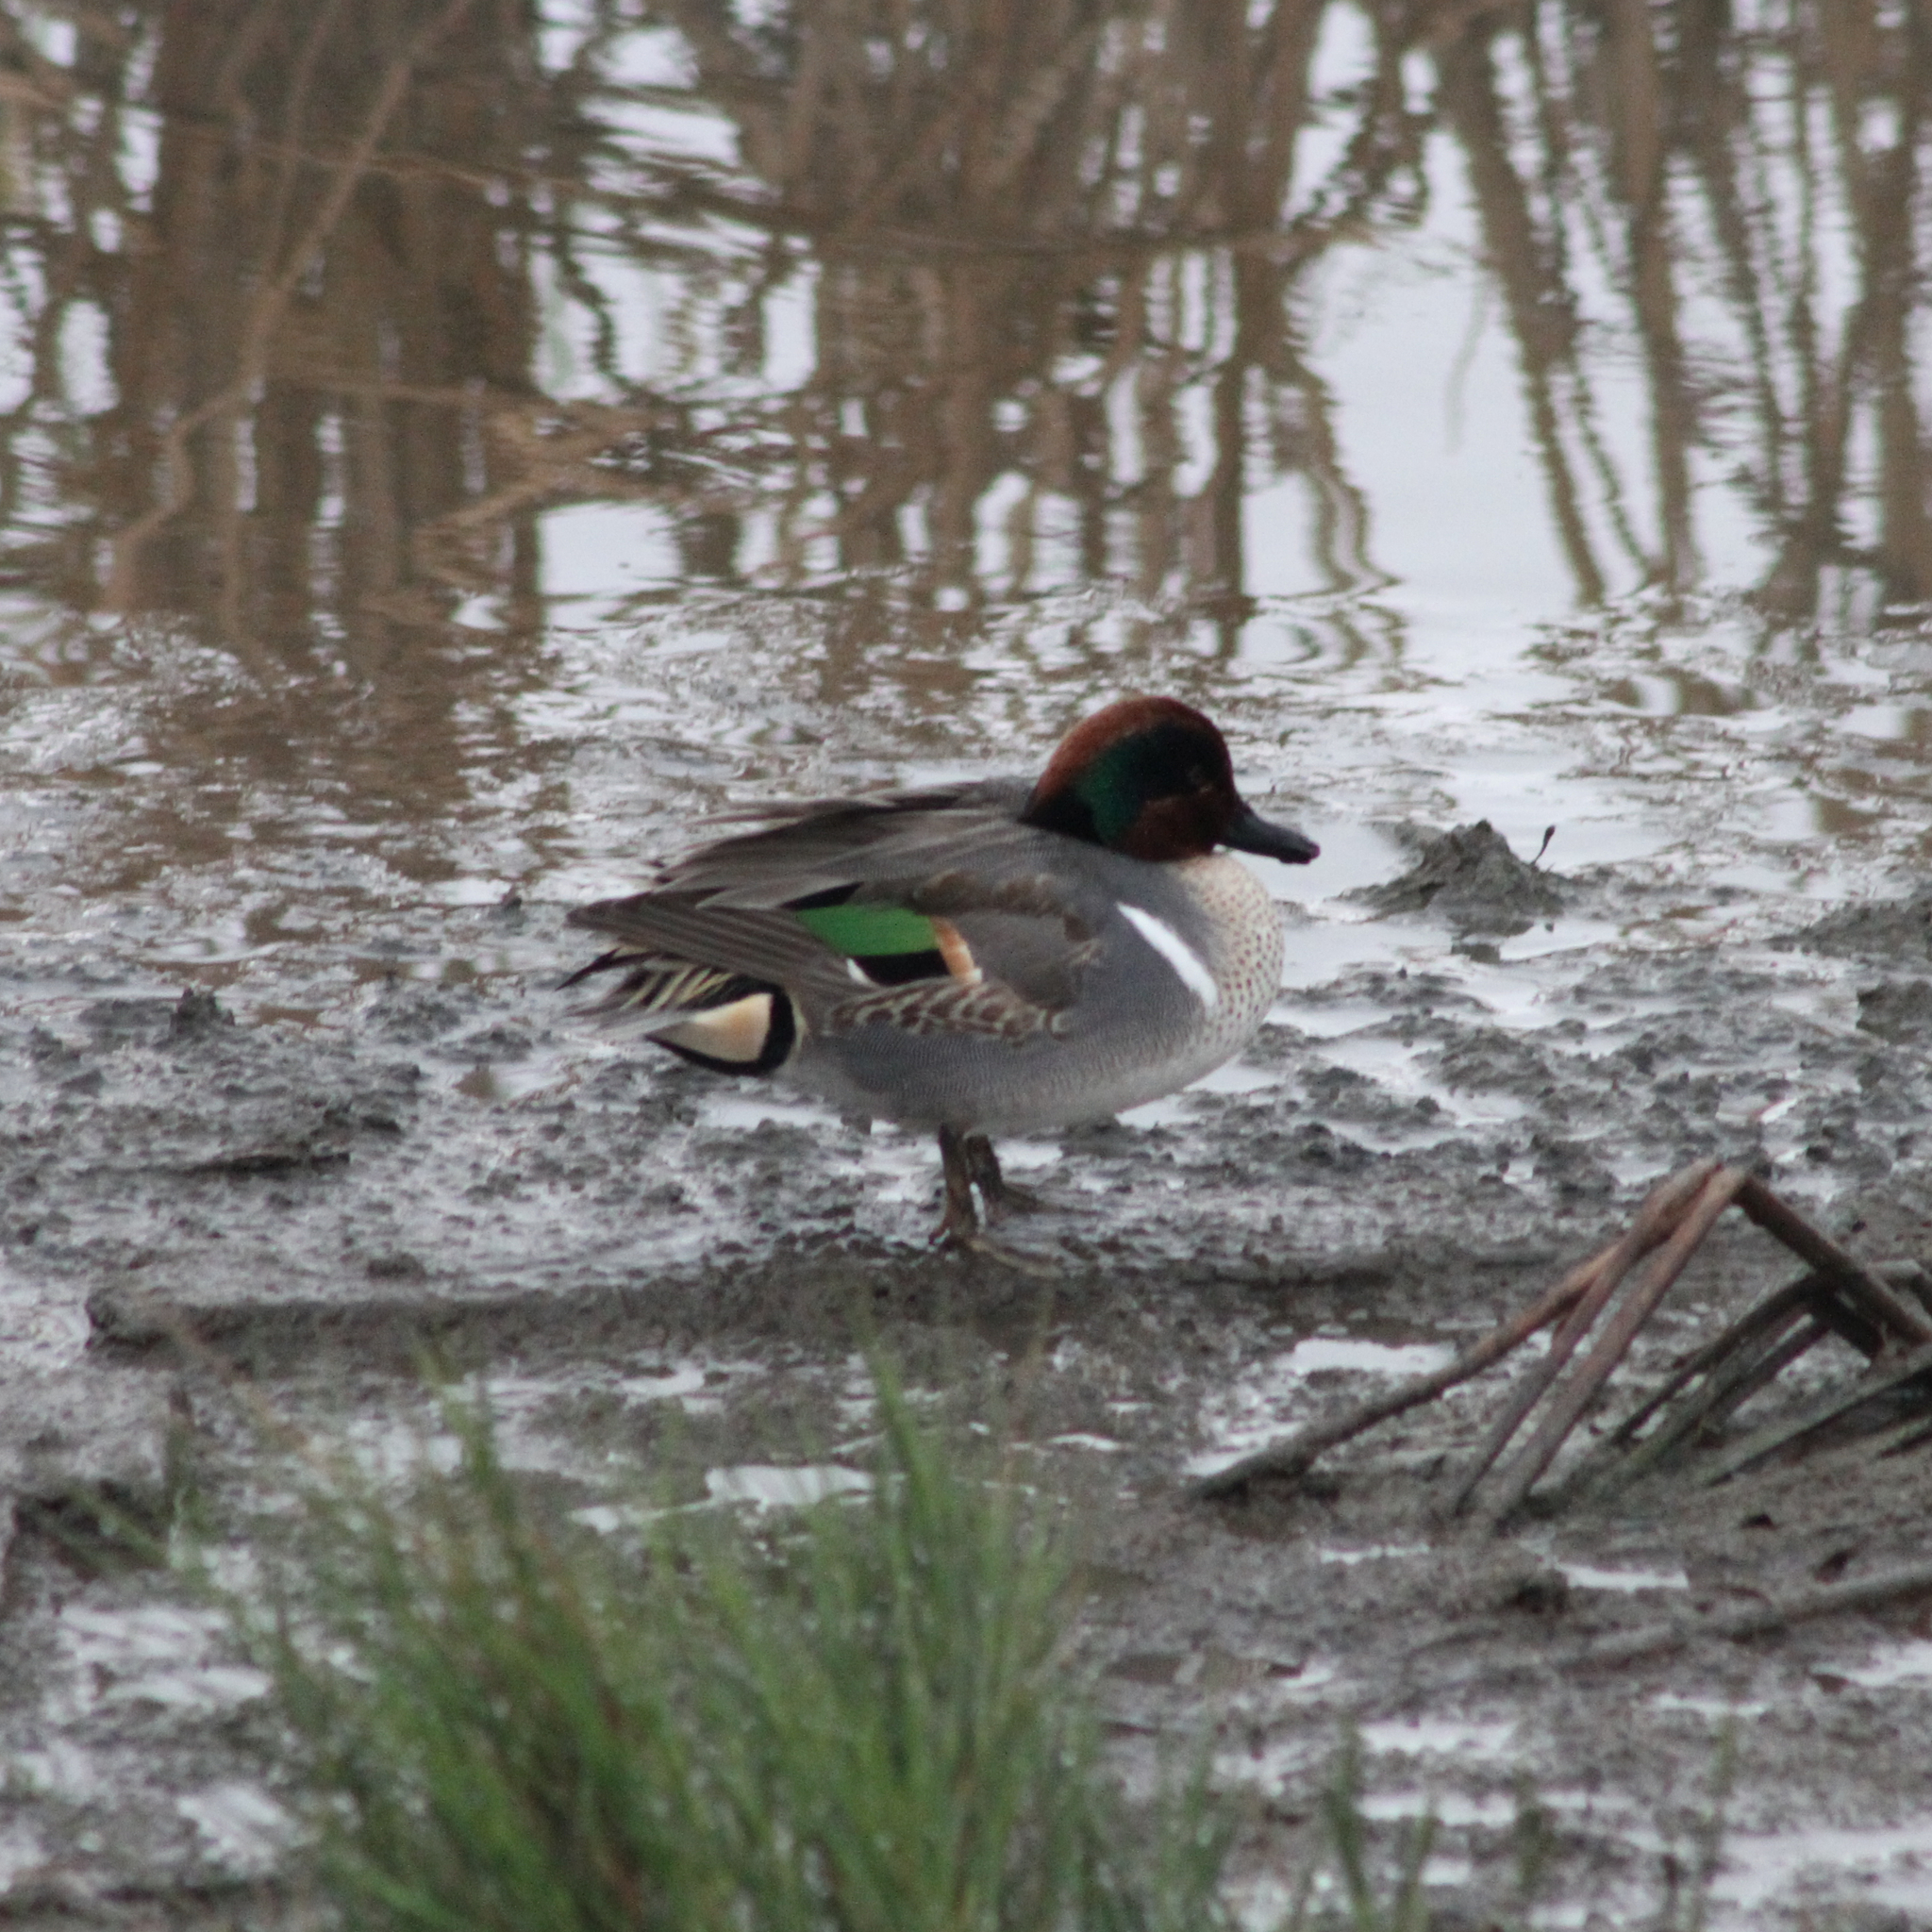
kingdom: Animalia
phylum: Chordata
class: Aves
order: Anseriformes
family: Anatidae
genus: Anas
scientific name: Anas crecca
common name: Eurasian teal
